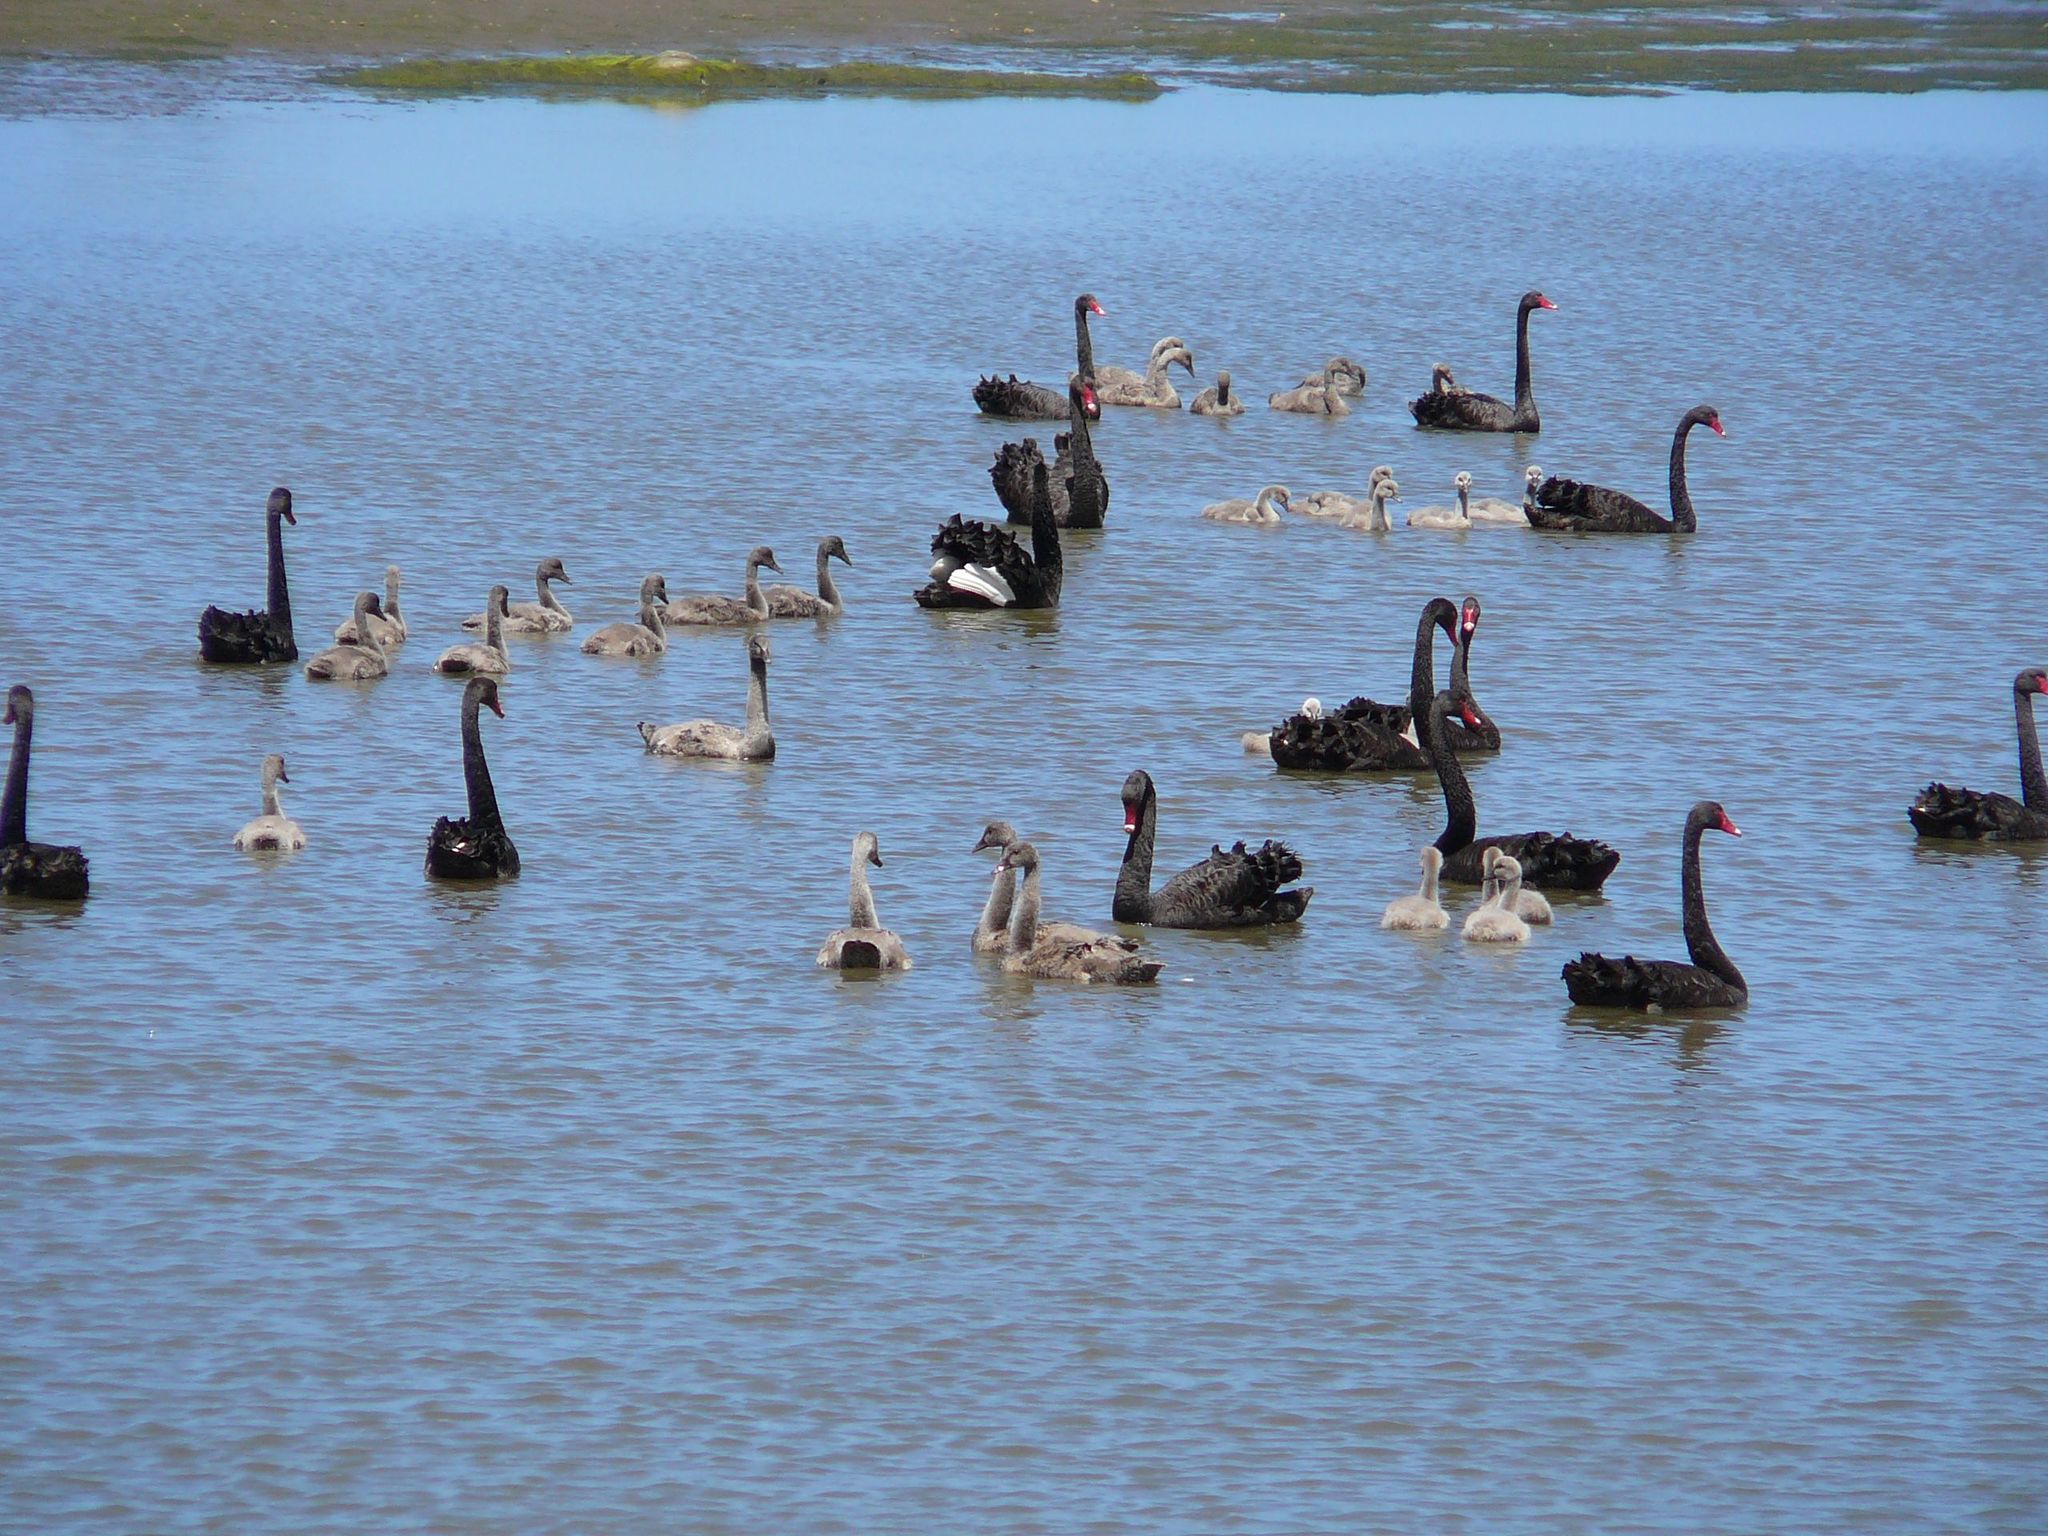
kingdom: Animalia
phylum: Chordata
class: Aves
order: Anseriformes
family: Anatidae
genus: Cygnus
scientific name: Cygnus atratus
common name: Black swan
